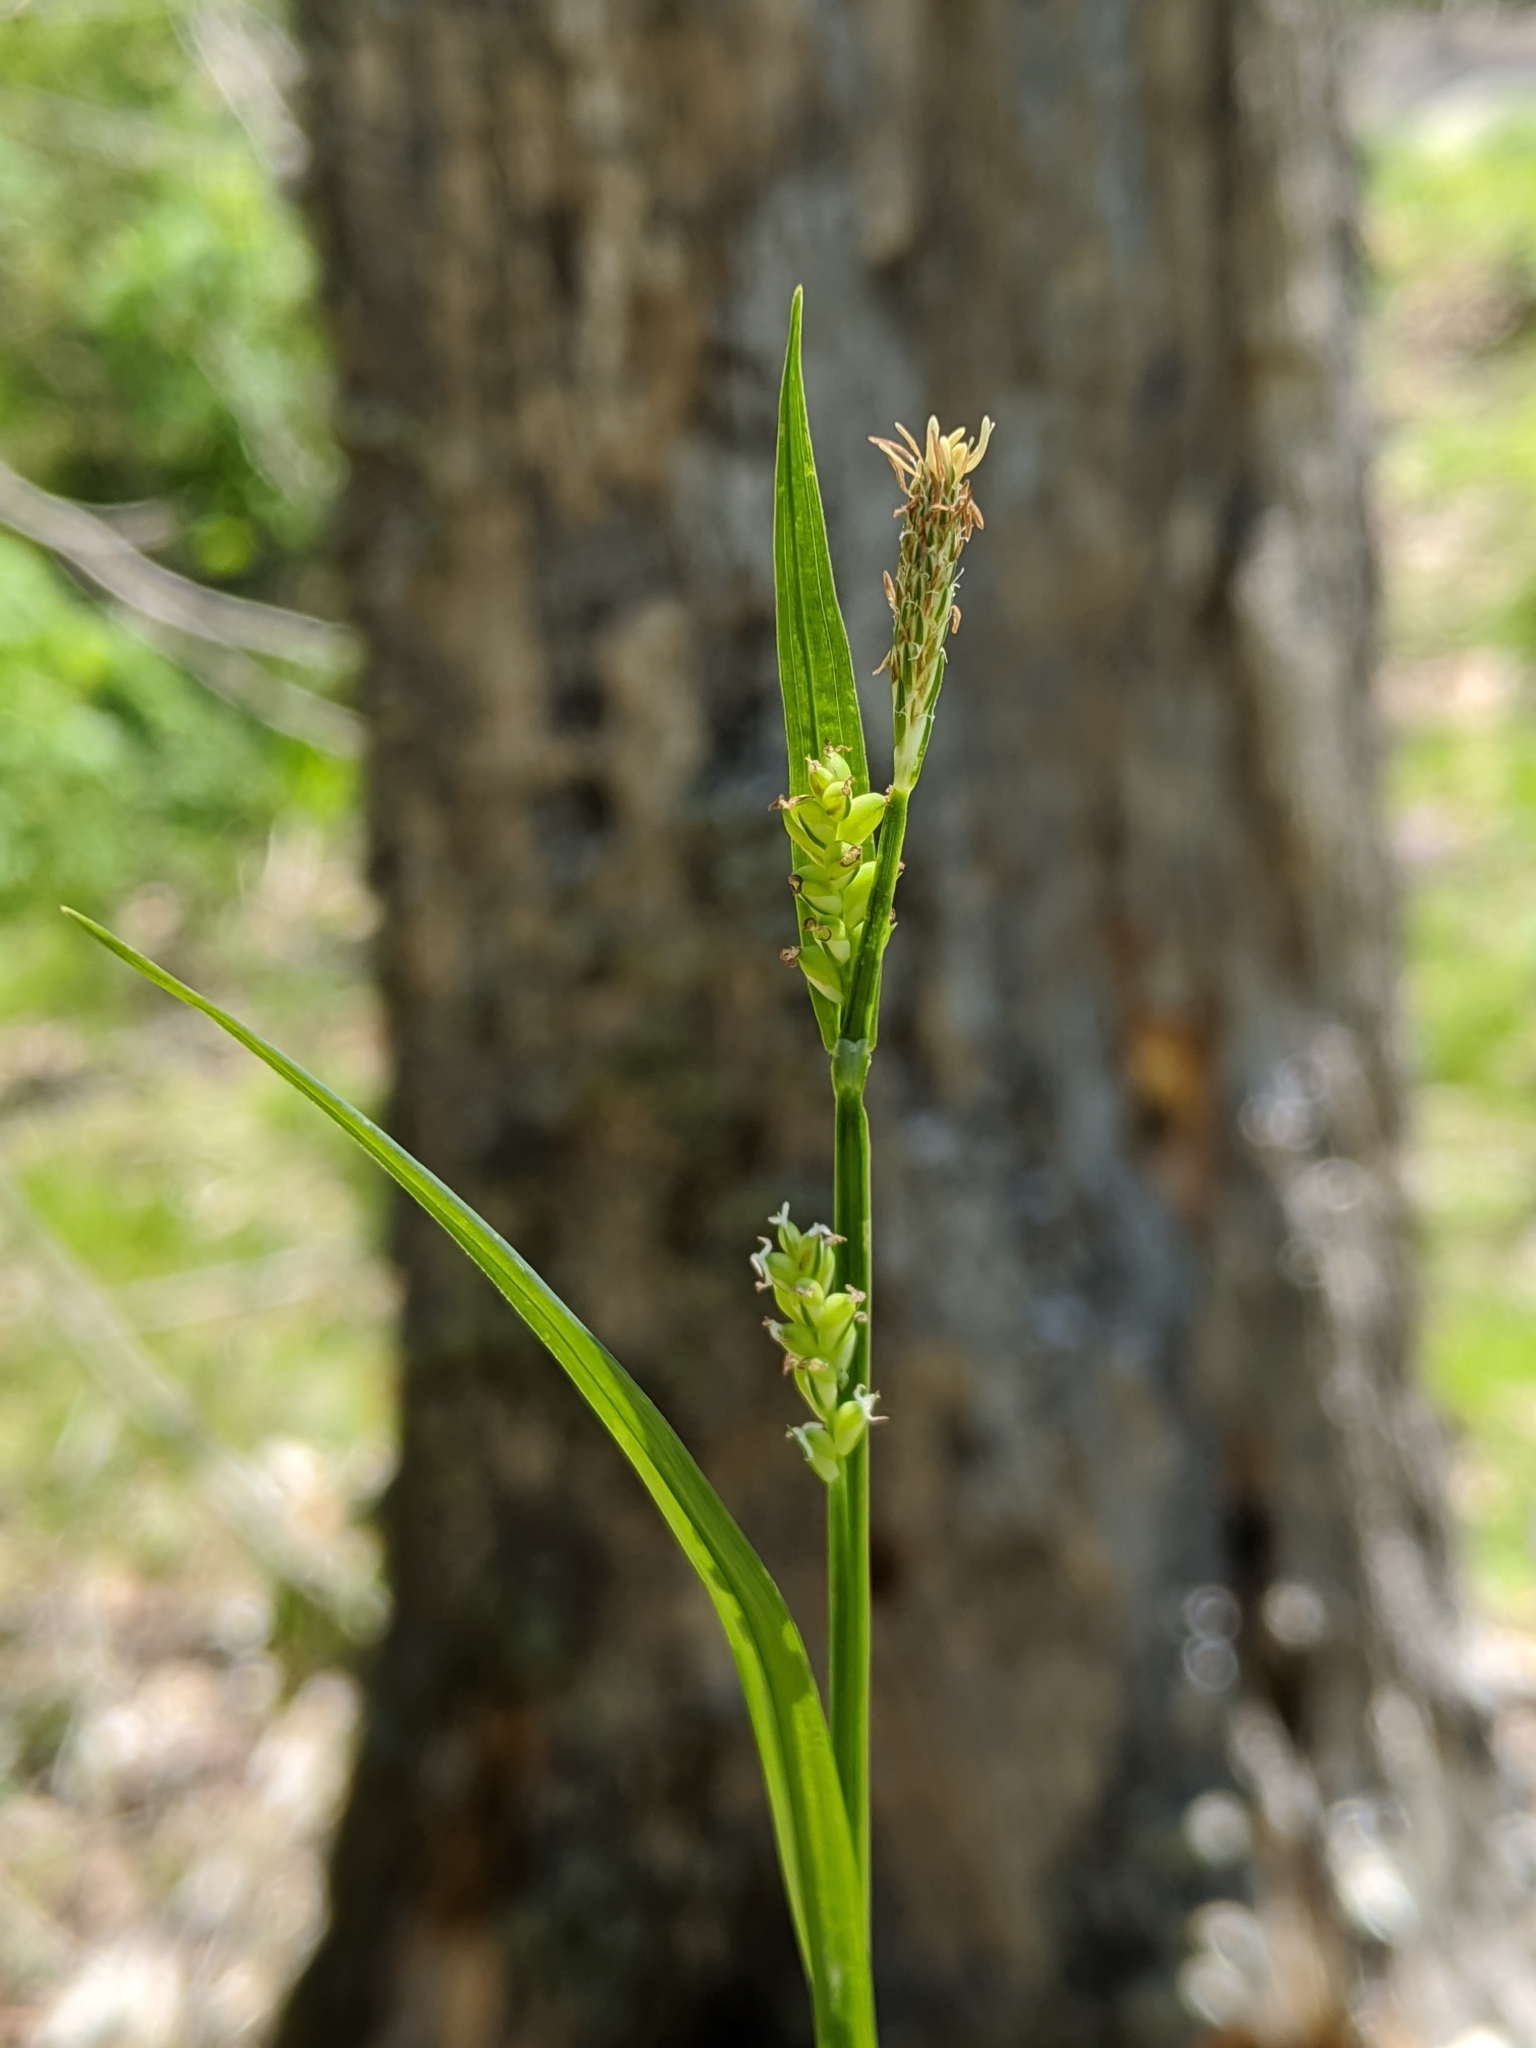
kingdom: Plantae
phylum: Tracheophyta
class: Liliopsida
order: Poales
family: Cyperaceae
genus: Carex
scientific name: Carex blanda
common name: Bland sedge
